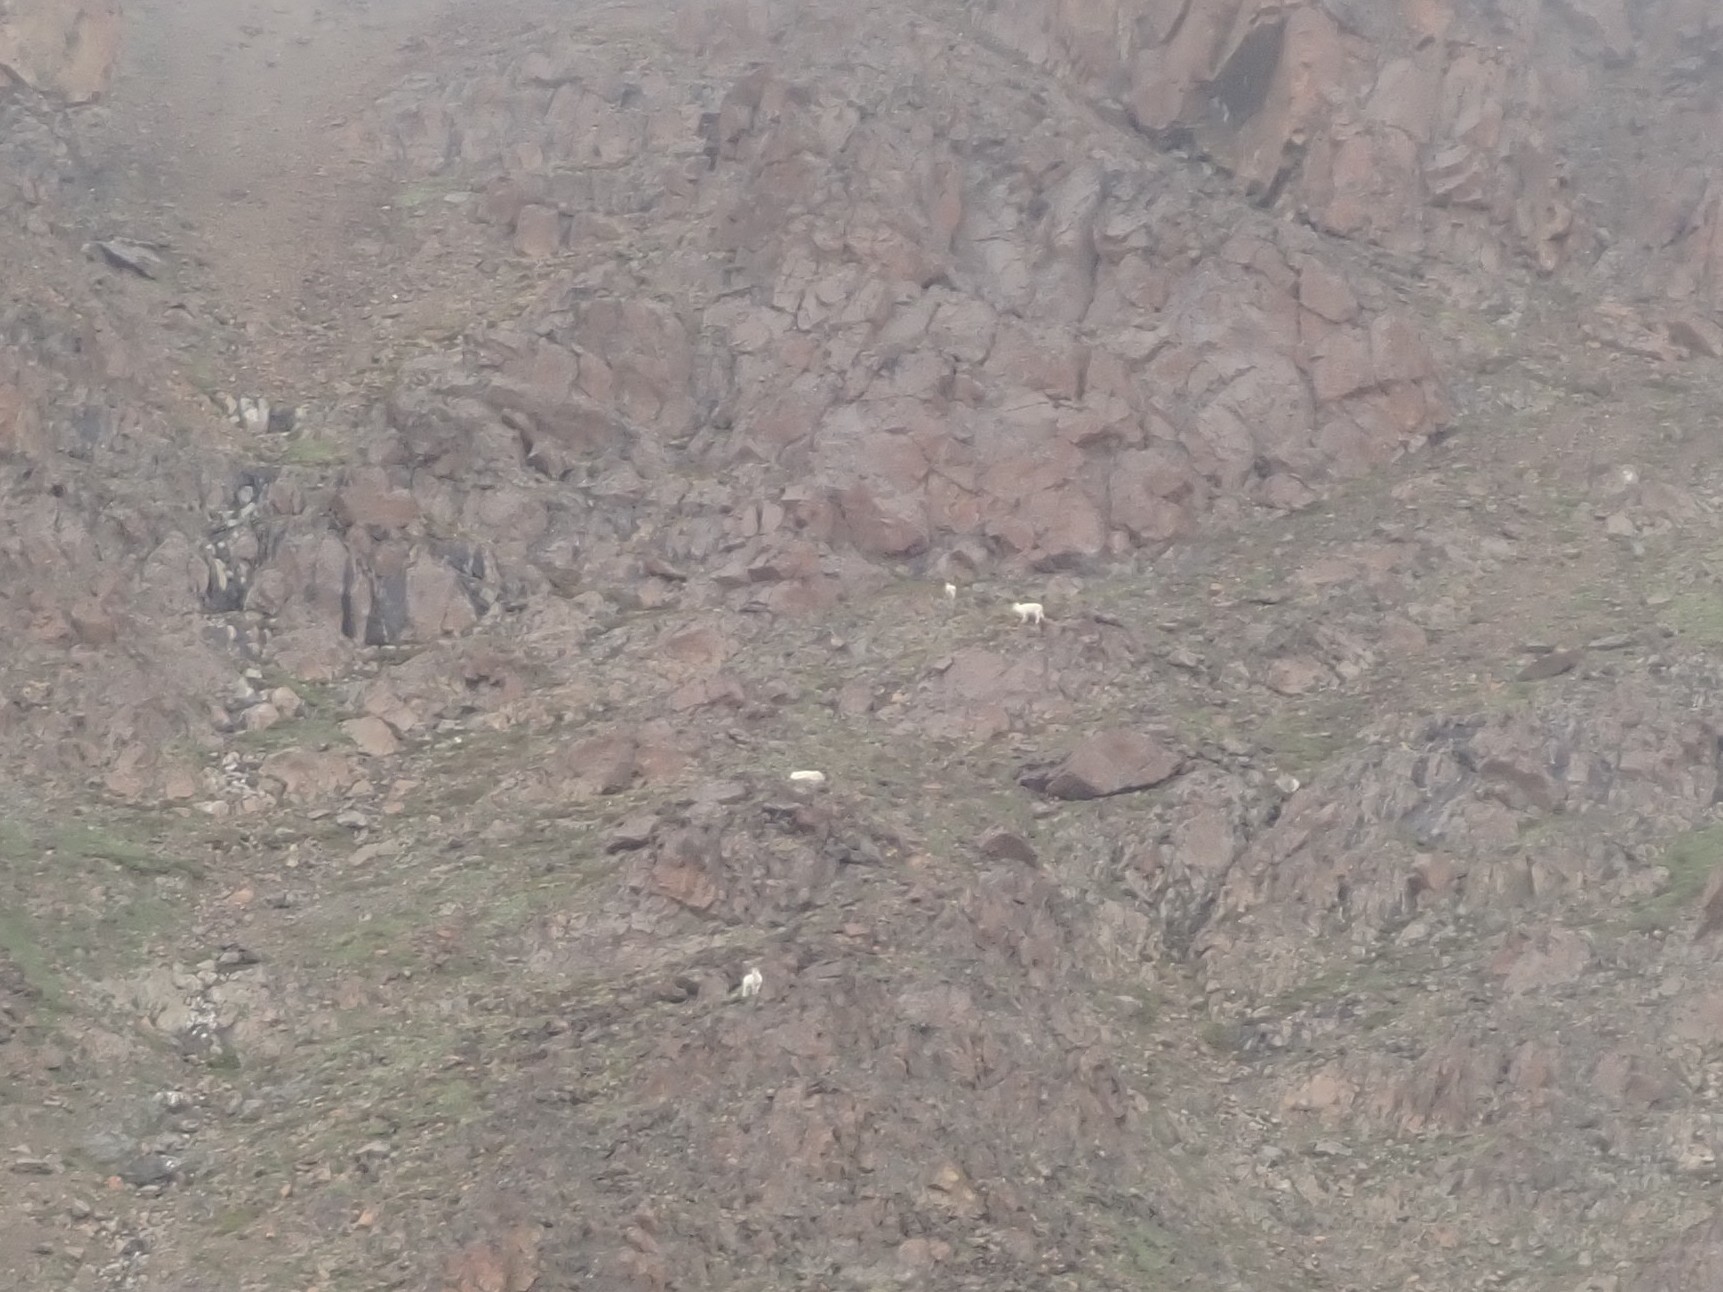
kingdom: Animalia
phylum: Chordata
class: Mammalia
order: Artiodactyla
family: Bovidae
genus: Ovis
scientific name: Ovis dalli
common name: Dall's sheep
